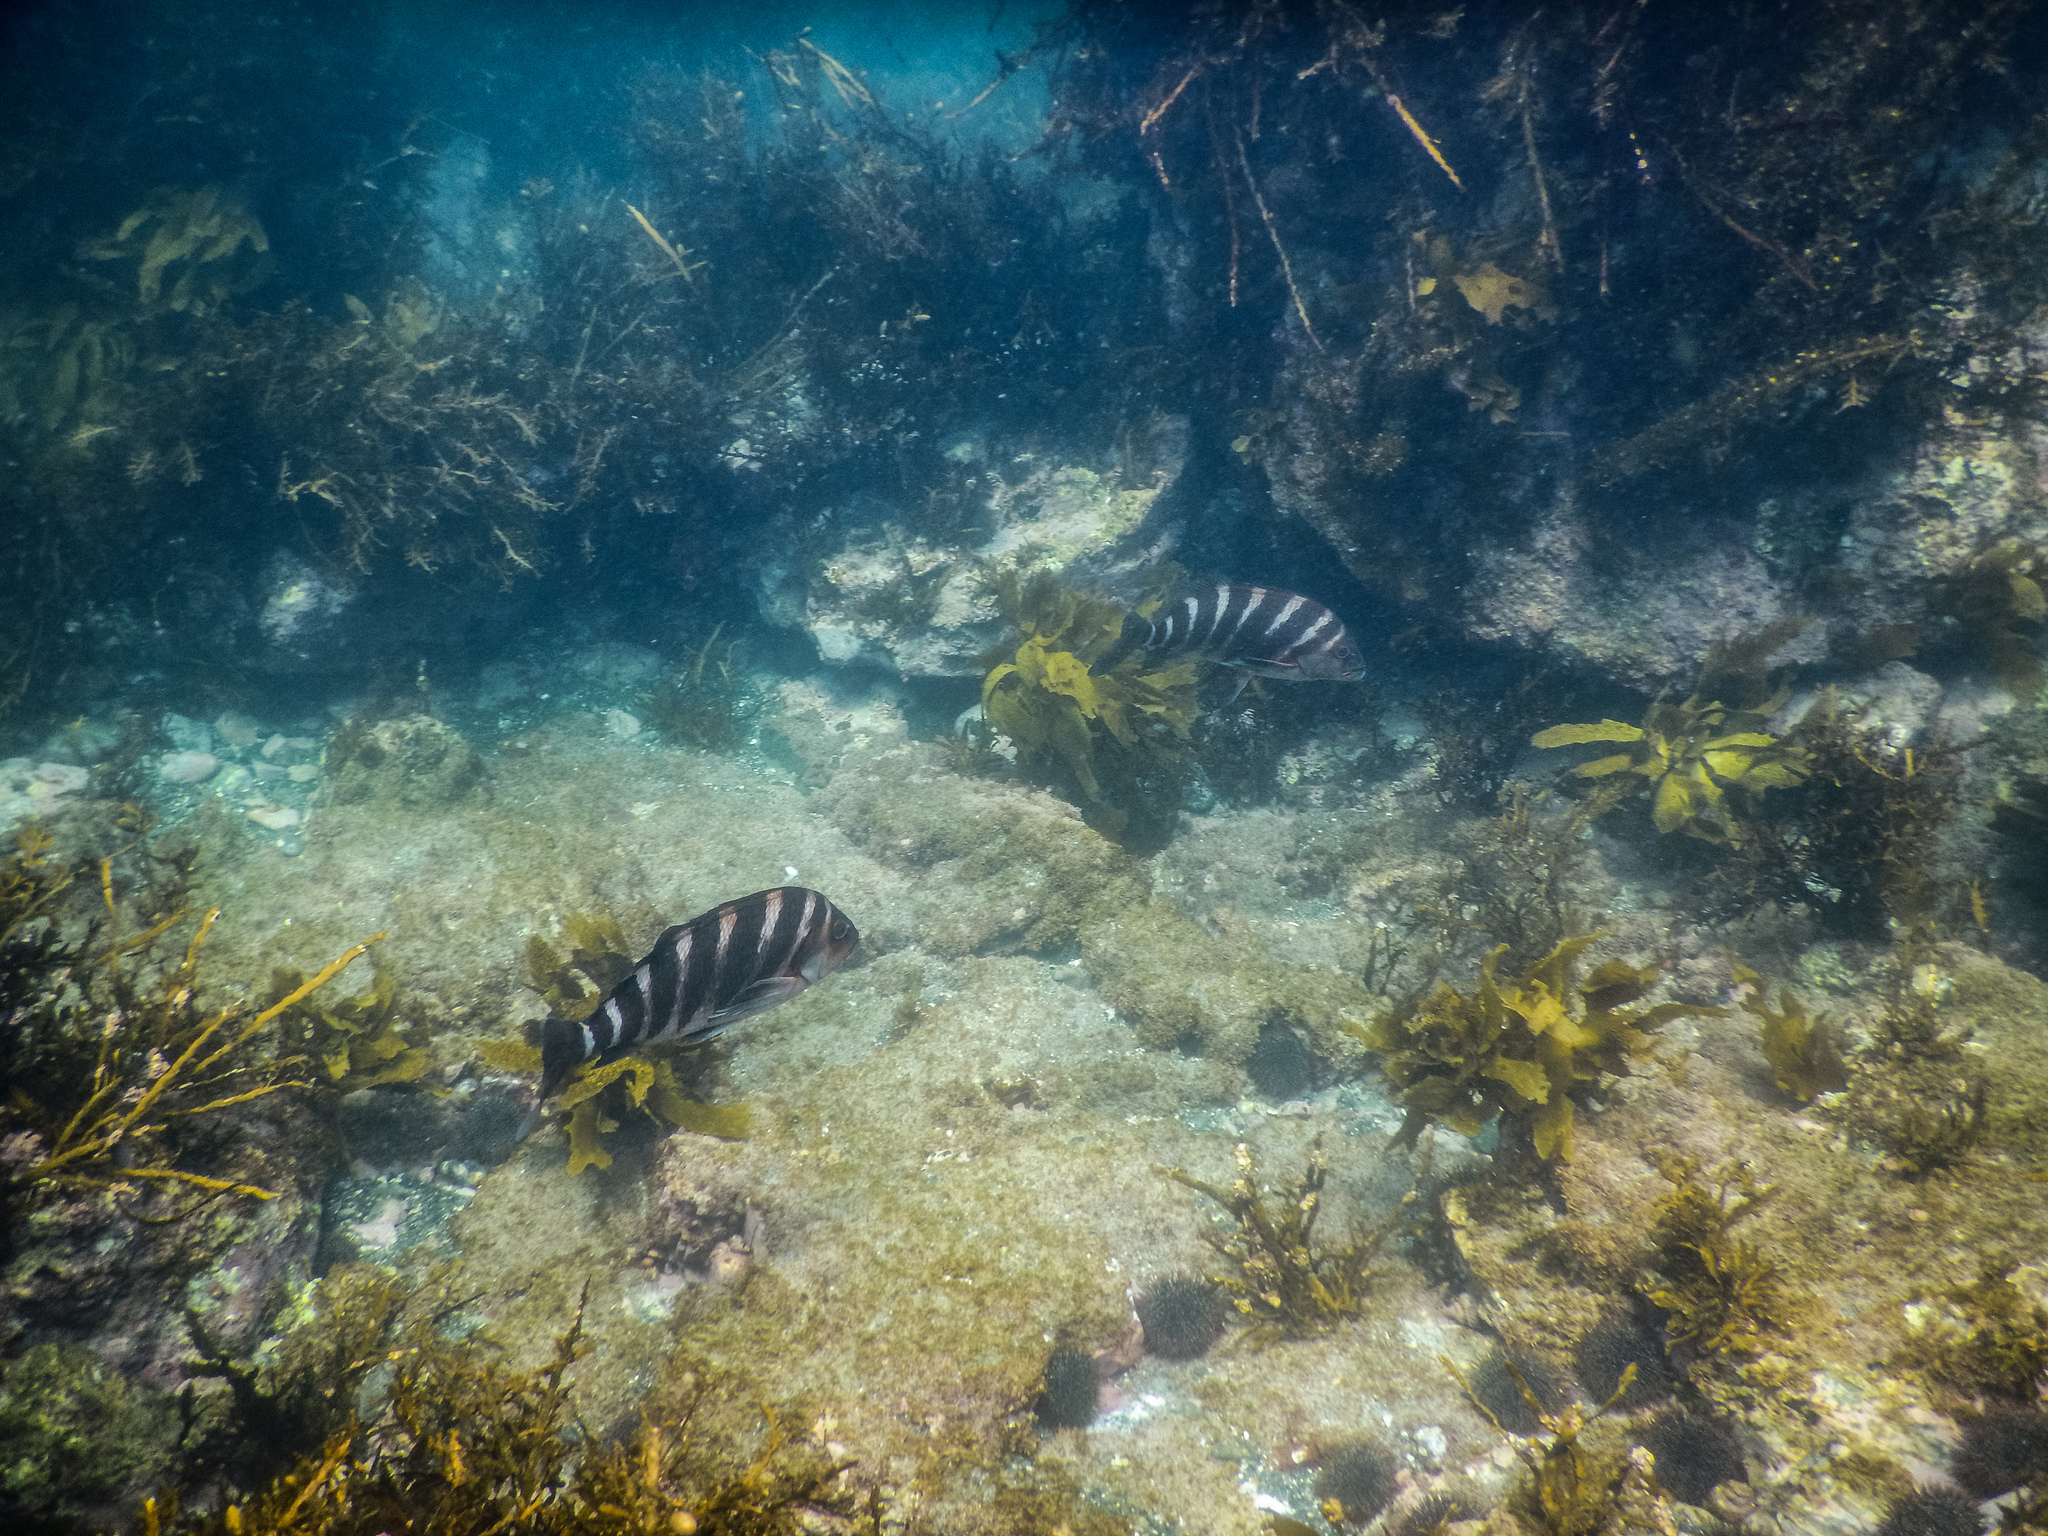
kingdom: Animalia
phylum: Chordata
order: Perciformes
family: Cheilodactylidae
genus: Cheilodactylus
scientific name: Cheilodactylus spectabilis
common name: Red moki
